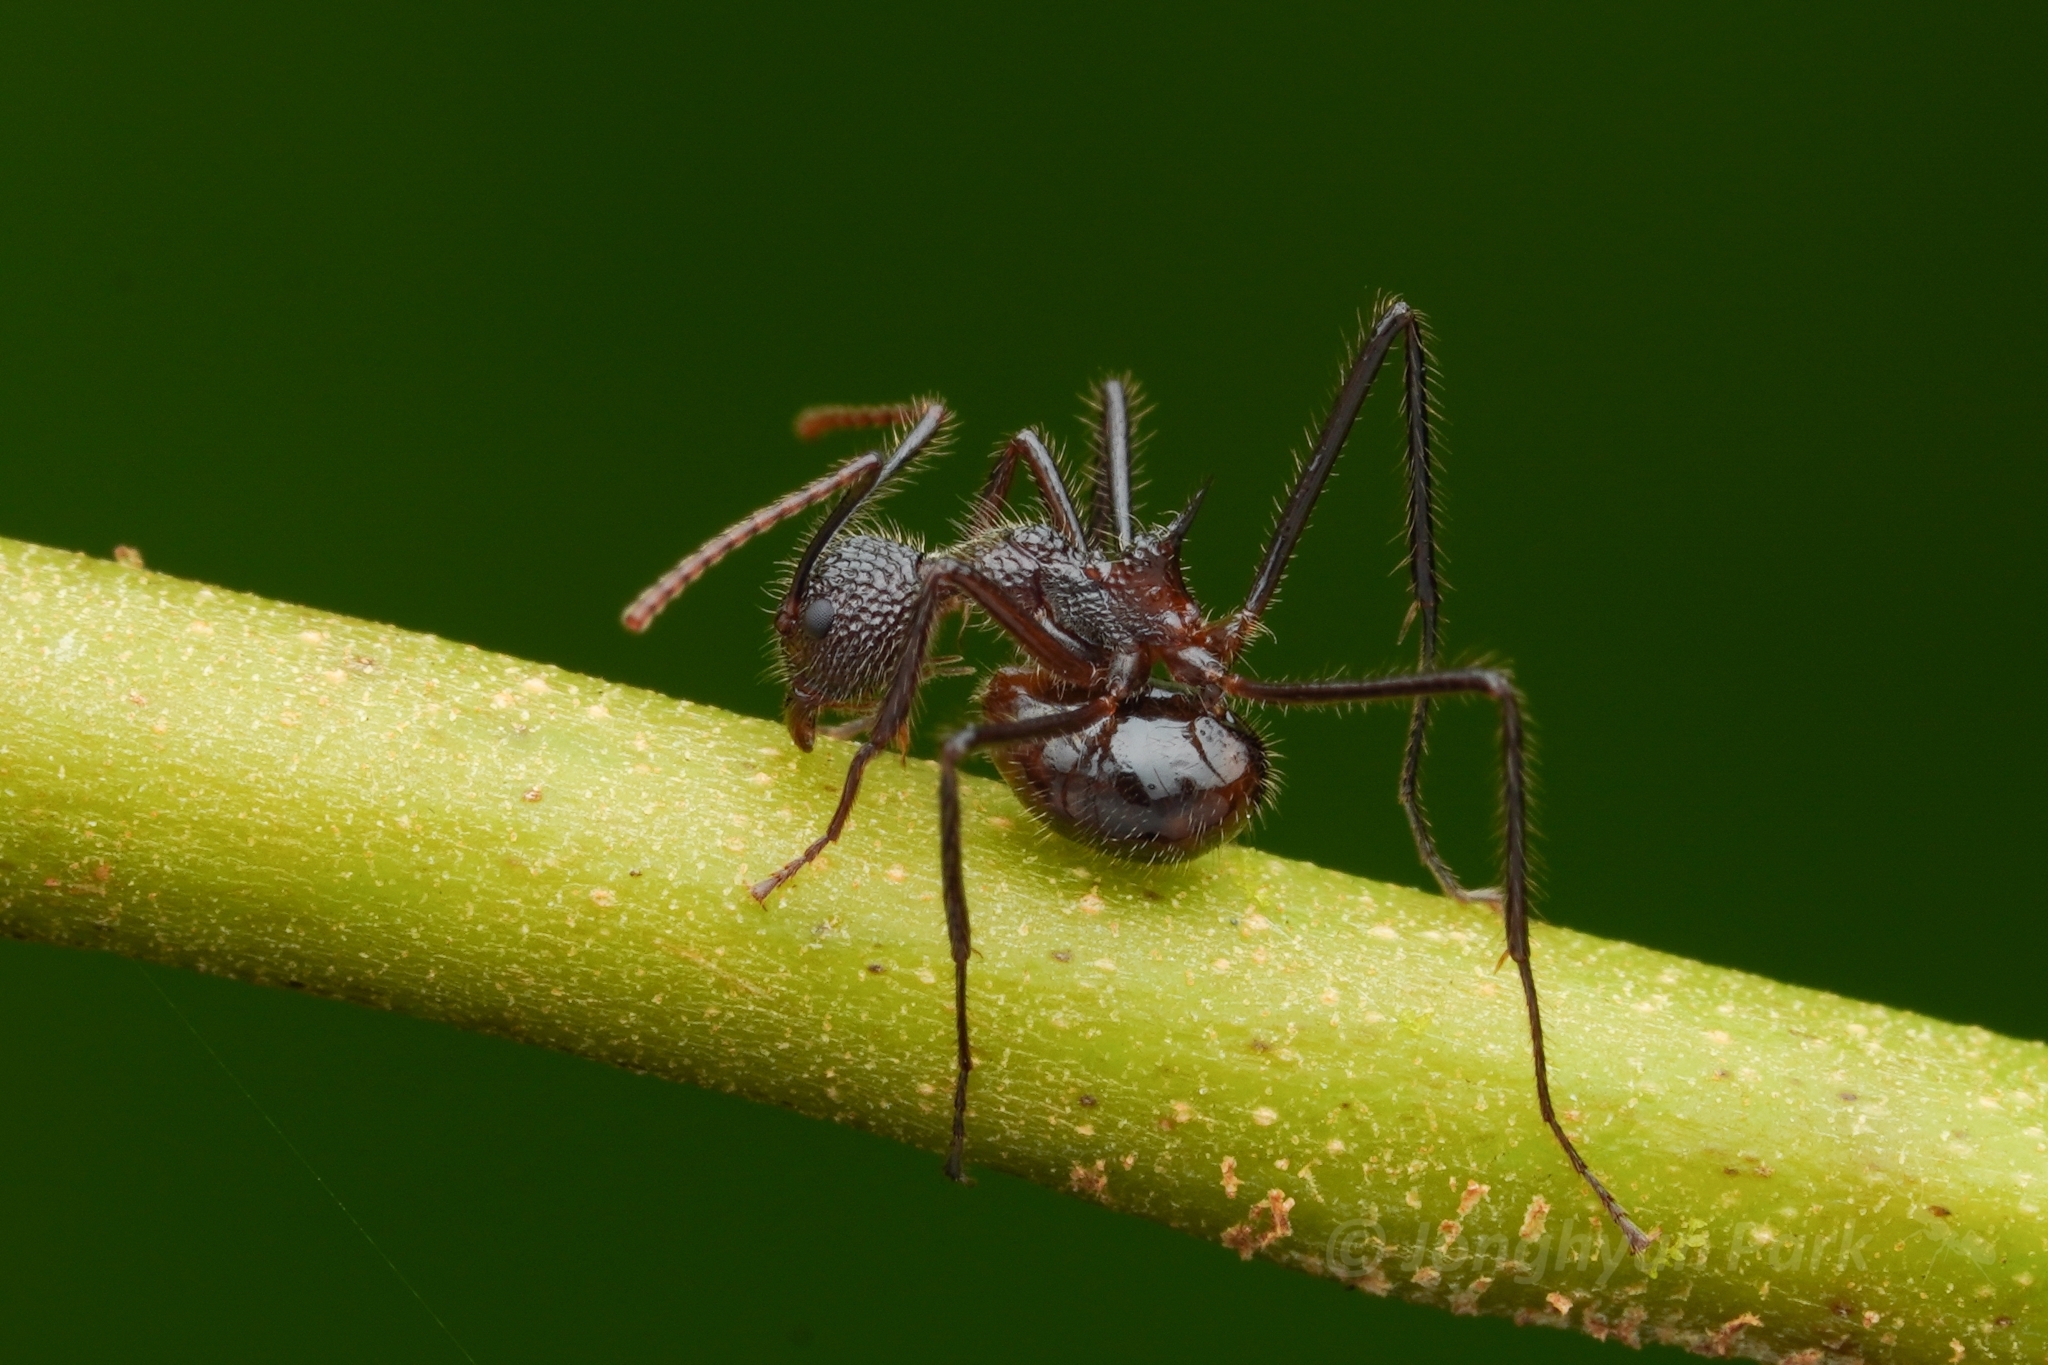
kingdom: Animalia
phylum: Arthropoda
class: Insecta
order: Hymenoptera
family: Formicidae
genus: Dolichoderus
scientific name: Dolichoderus indrapurensis
